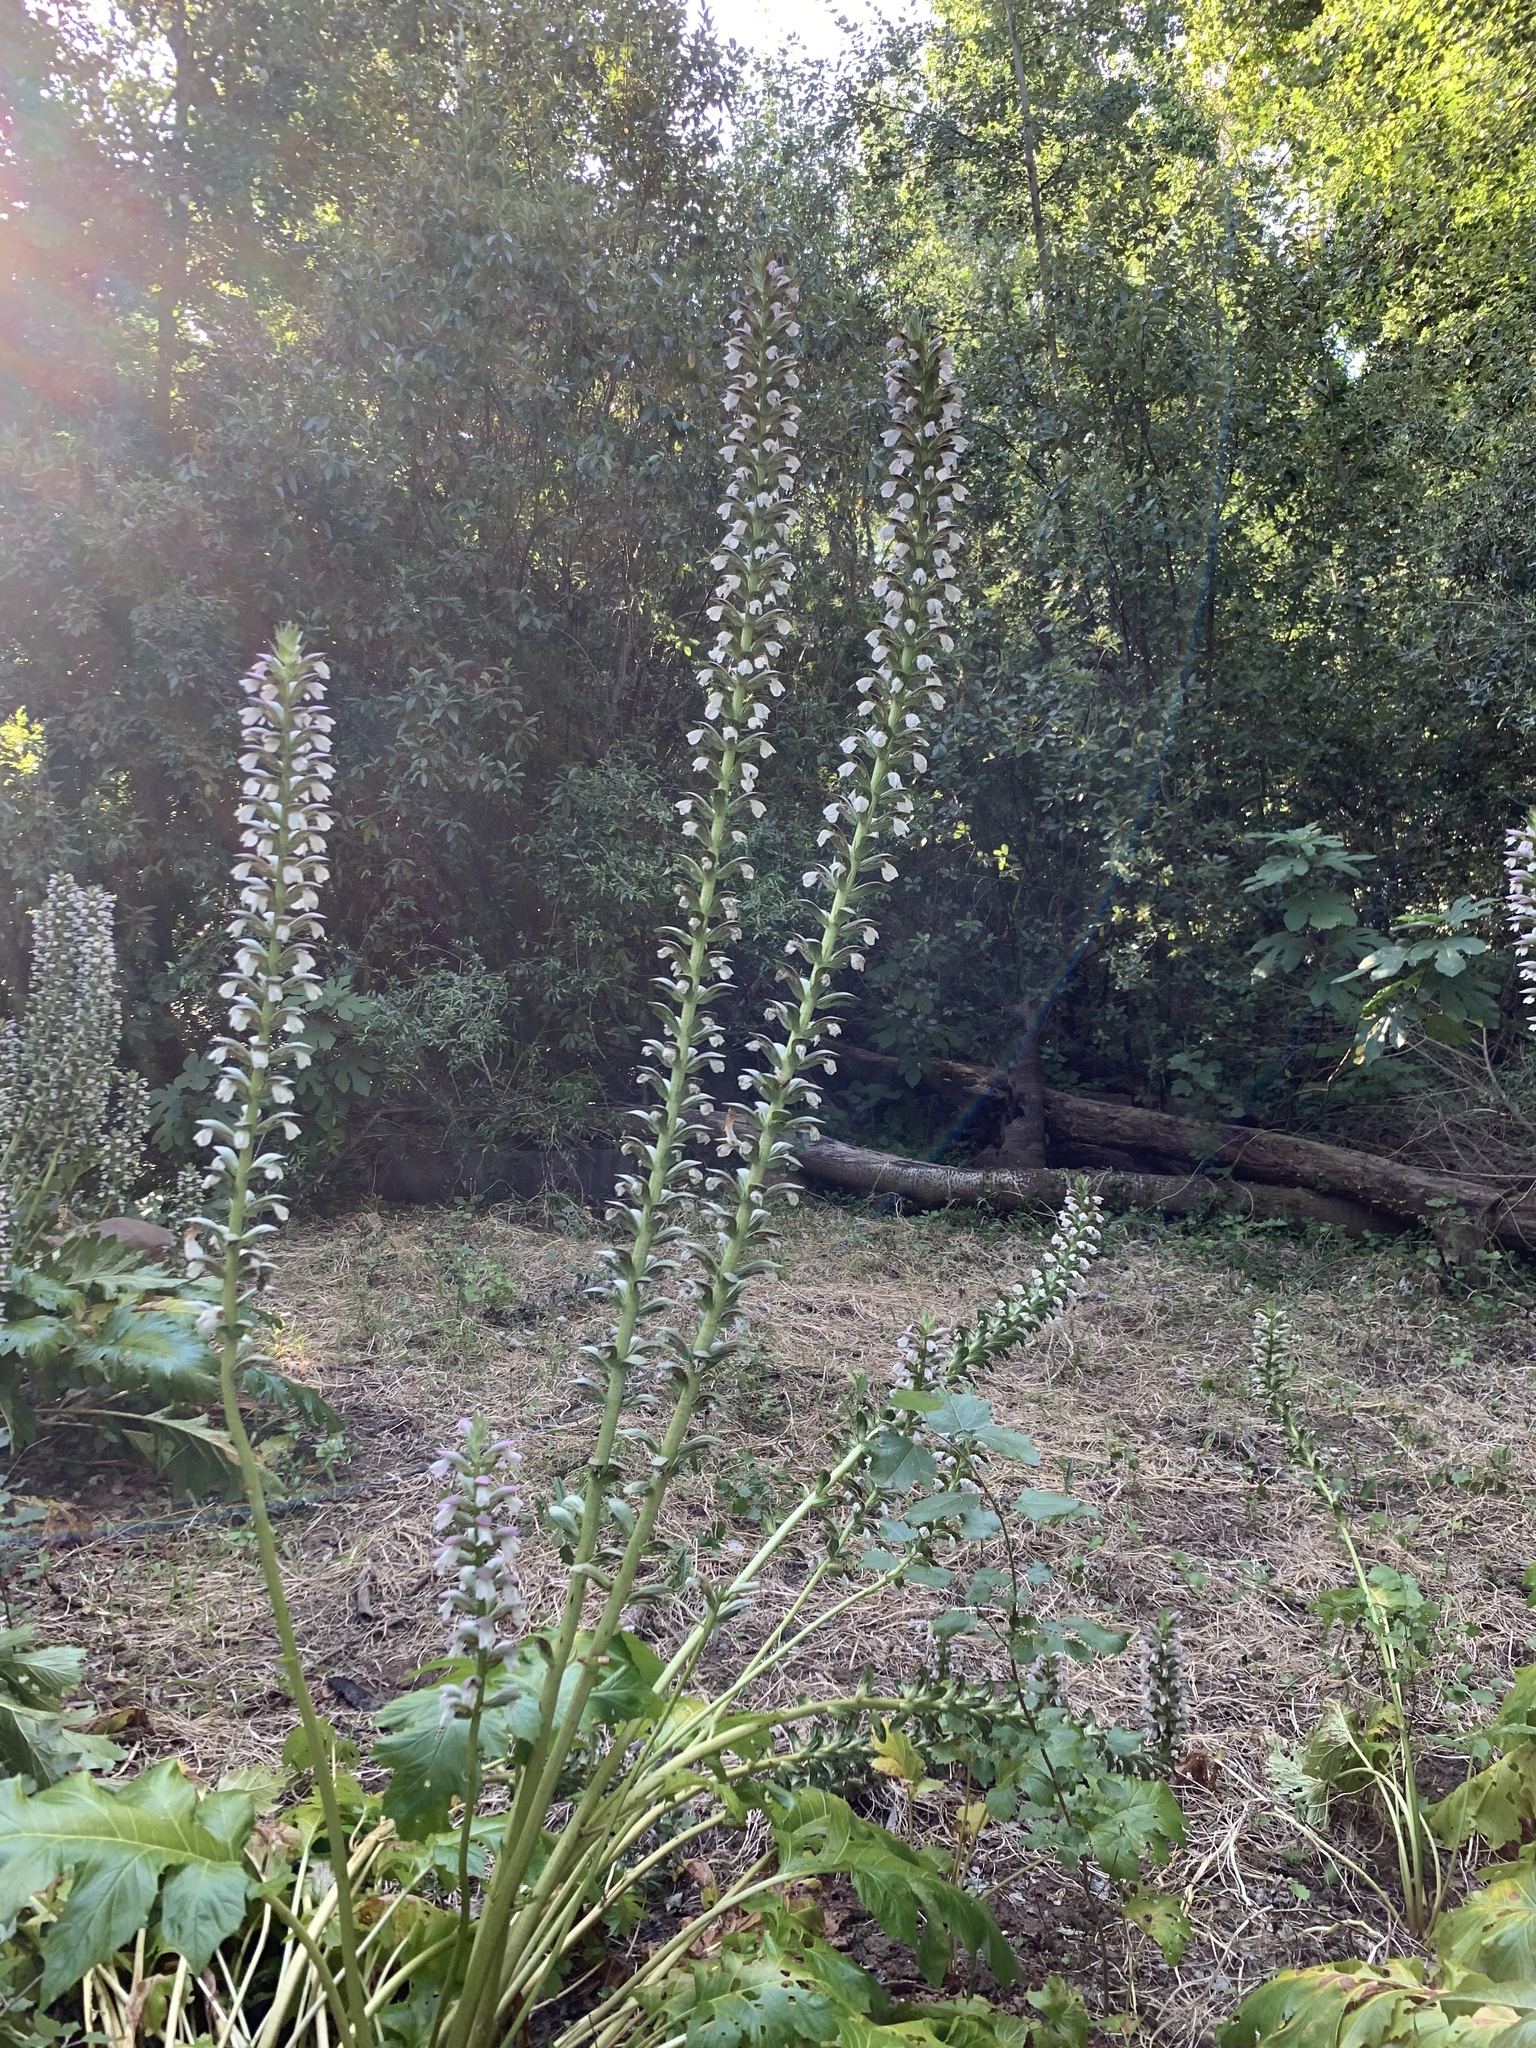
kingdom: Plantae
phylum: Tracheophyta
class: Magnoliopsida
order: Lamiales
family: Acanthaceae
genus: Acanthus
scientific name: Acanthus mollis
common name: Bear's-breech
